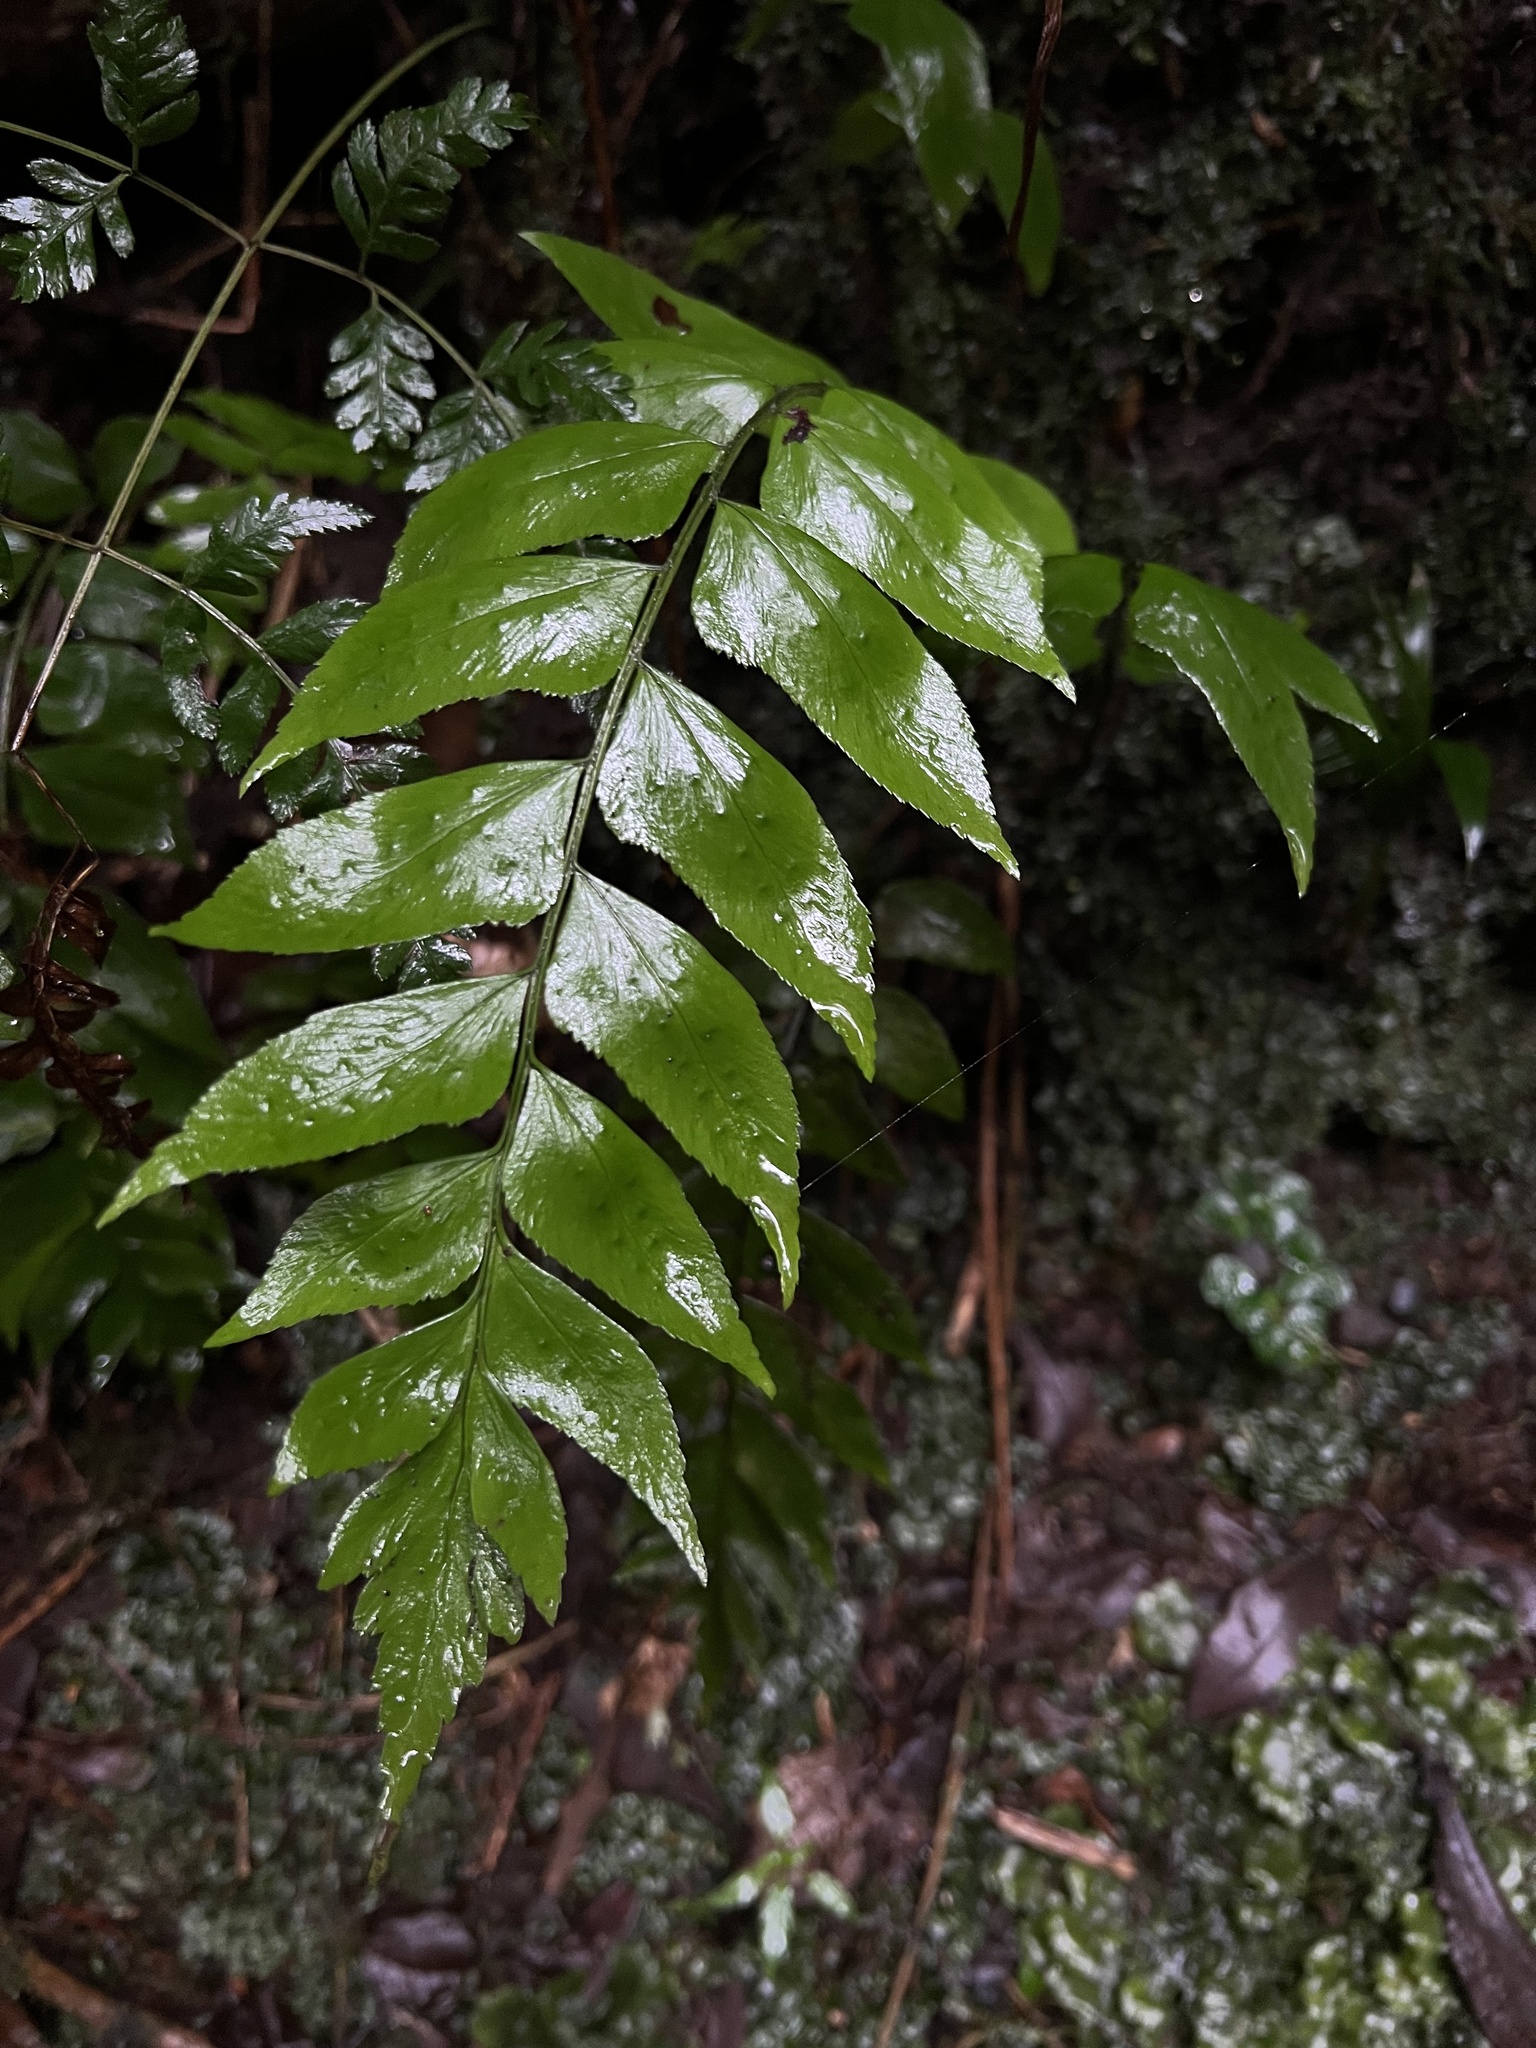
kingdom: Plantae
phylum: Tracheophyta
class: Polypodiopsida
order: Polypodiales
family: Dryopteridaceae
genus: Polystichum
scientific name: Polystichum dubium
